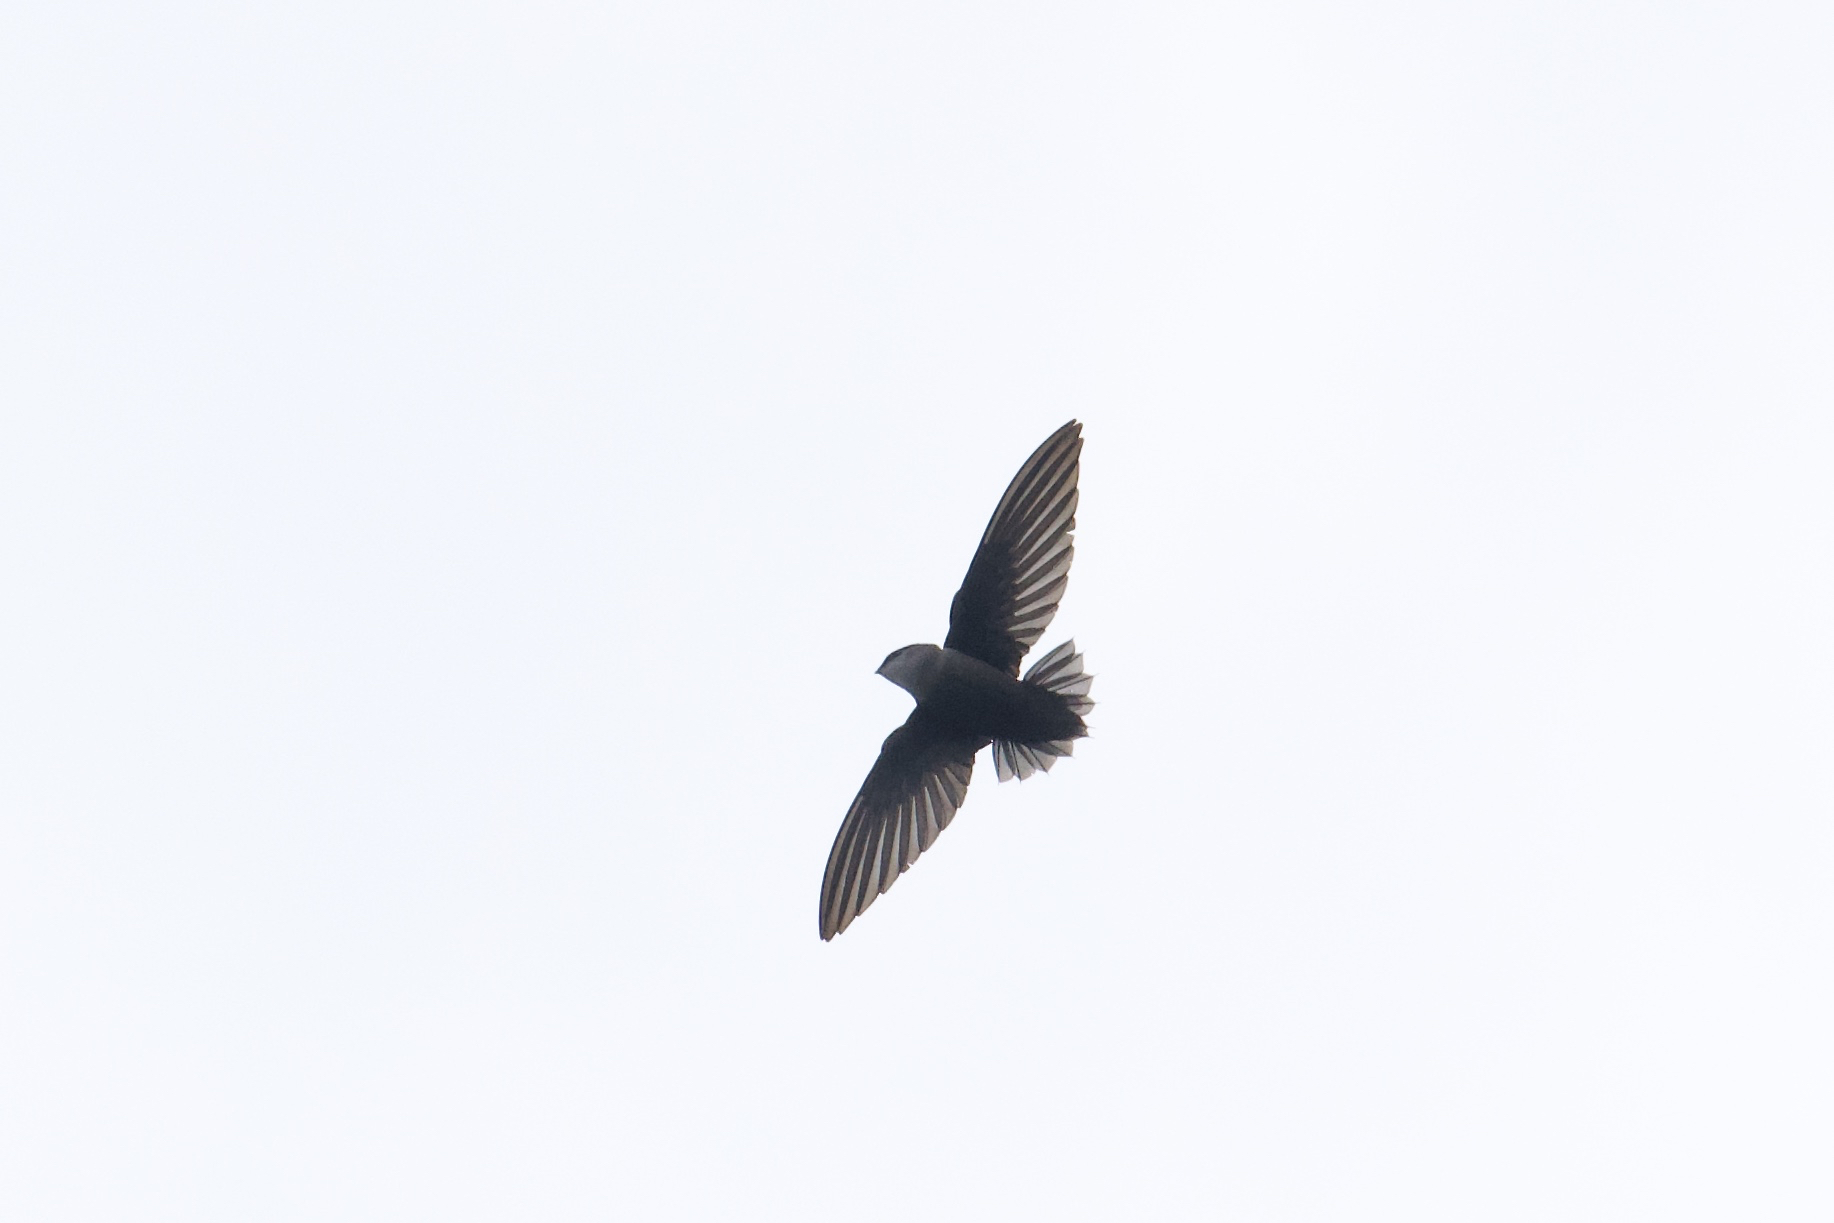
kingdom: Animalia
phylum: Chordata
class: Aves
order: Apodiformes
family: Apodidae
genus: Chaetura
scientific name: Chaetura pelagica
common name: Chimney swift
